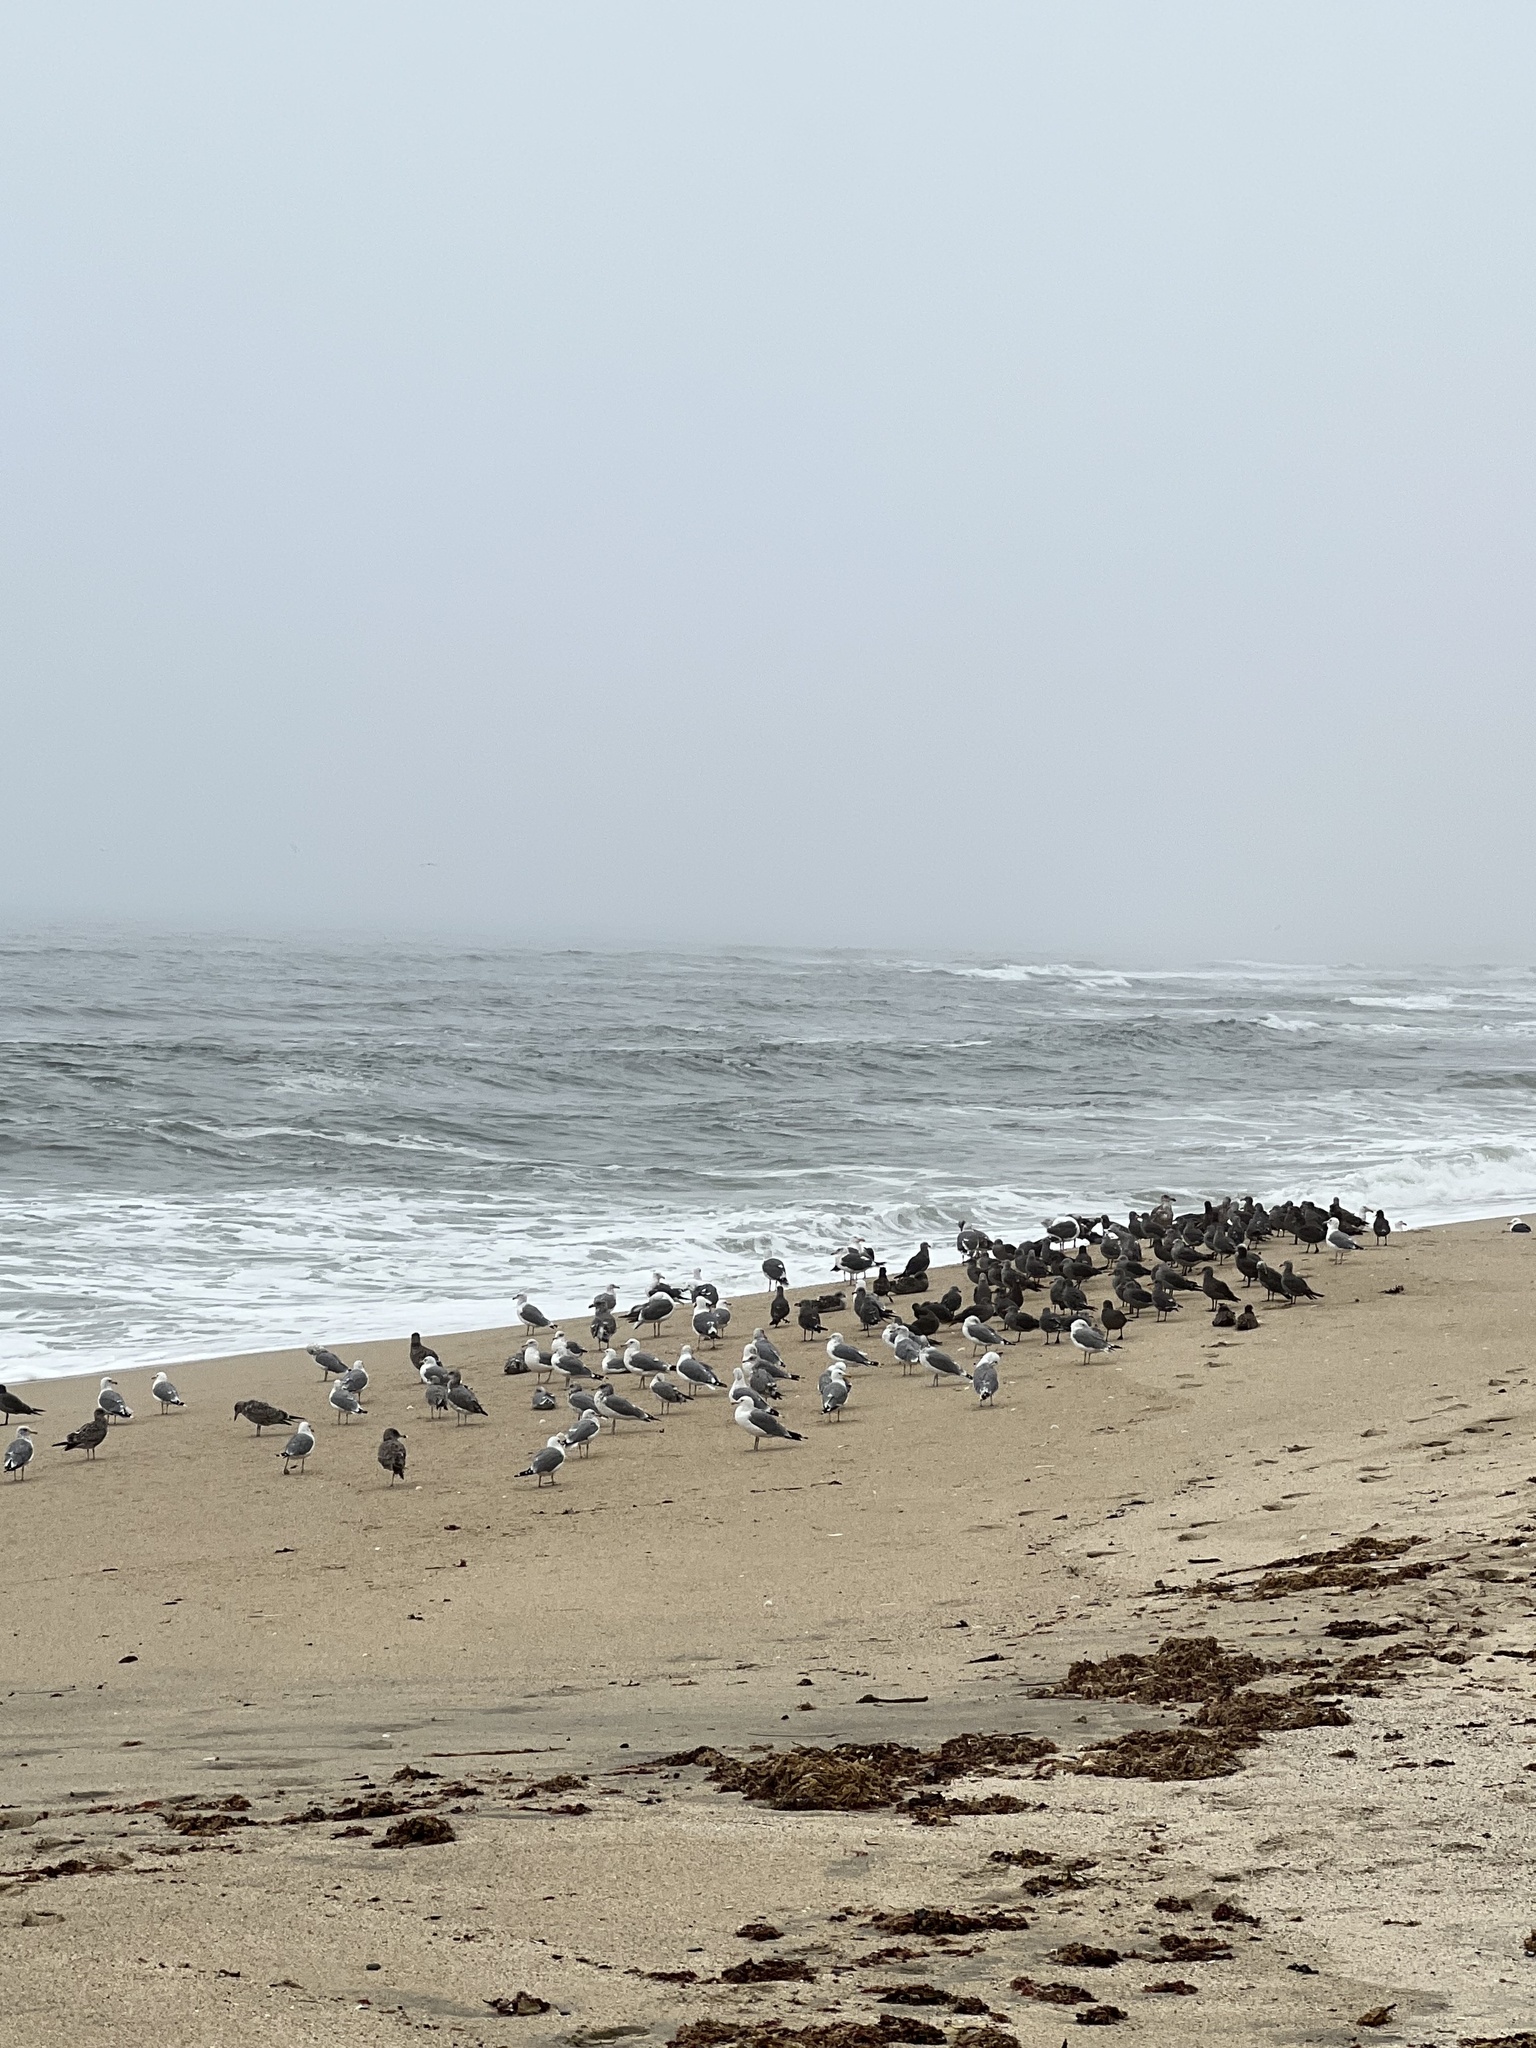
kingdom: Animalia
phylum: Chordata
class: Aves
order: Charadriiformes
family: Laridae
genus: Larus
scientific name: Larus heermanni
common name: Heermann's gull
